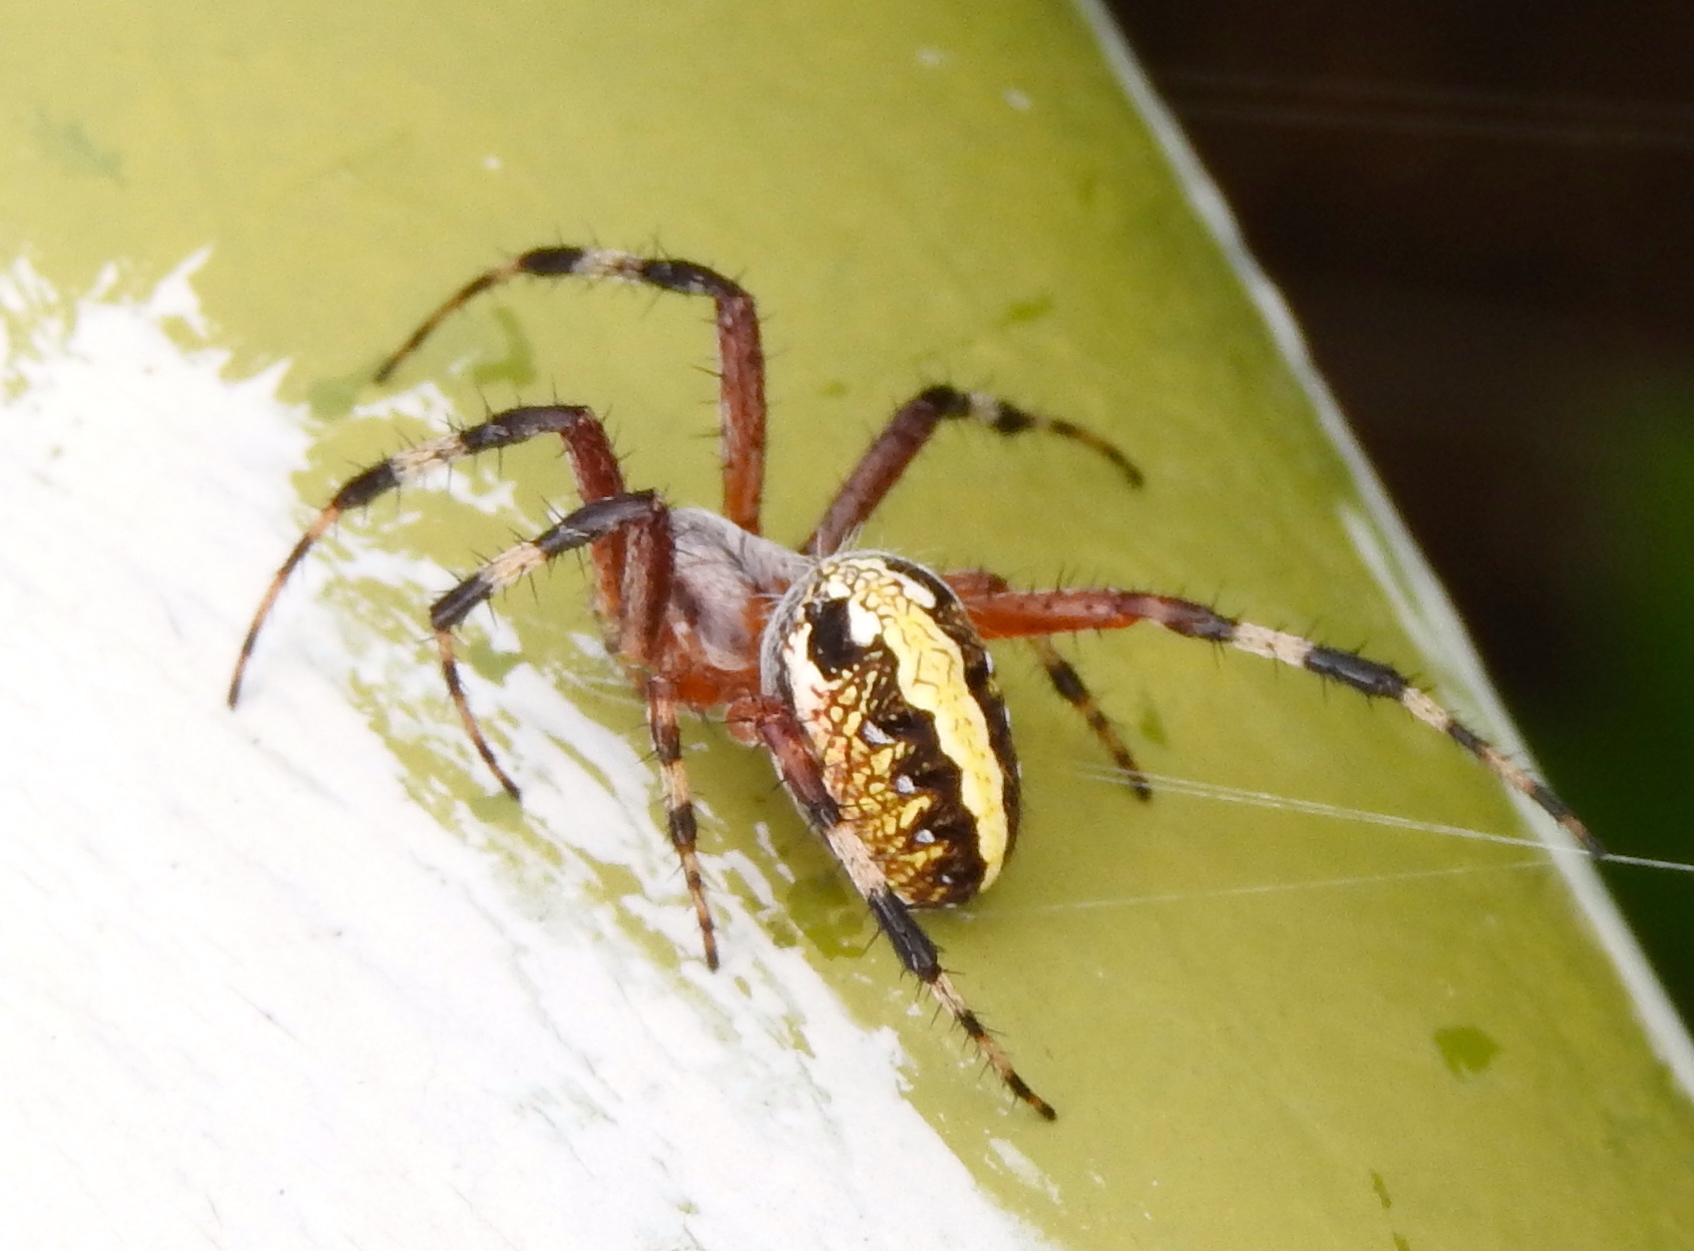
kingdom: Animalia
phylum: Arthropoda
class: Arachnida
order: Araneae
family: Araneidae
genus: Neoscona
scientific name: Neoscona oaxacensis
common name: Orb weavers
